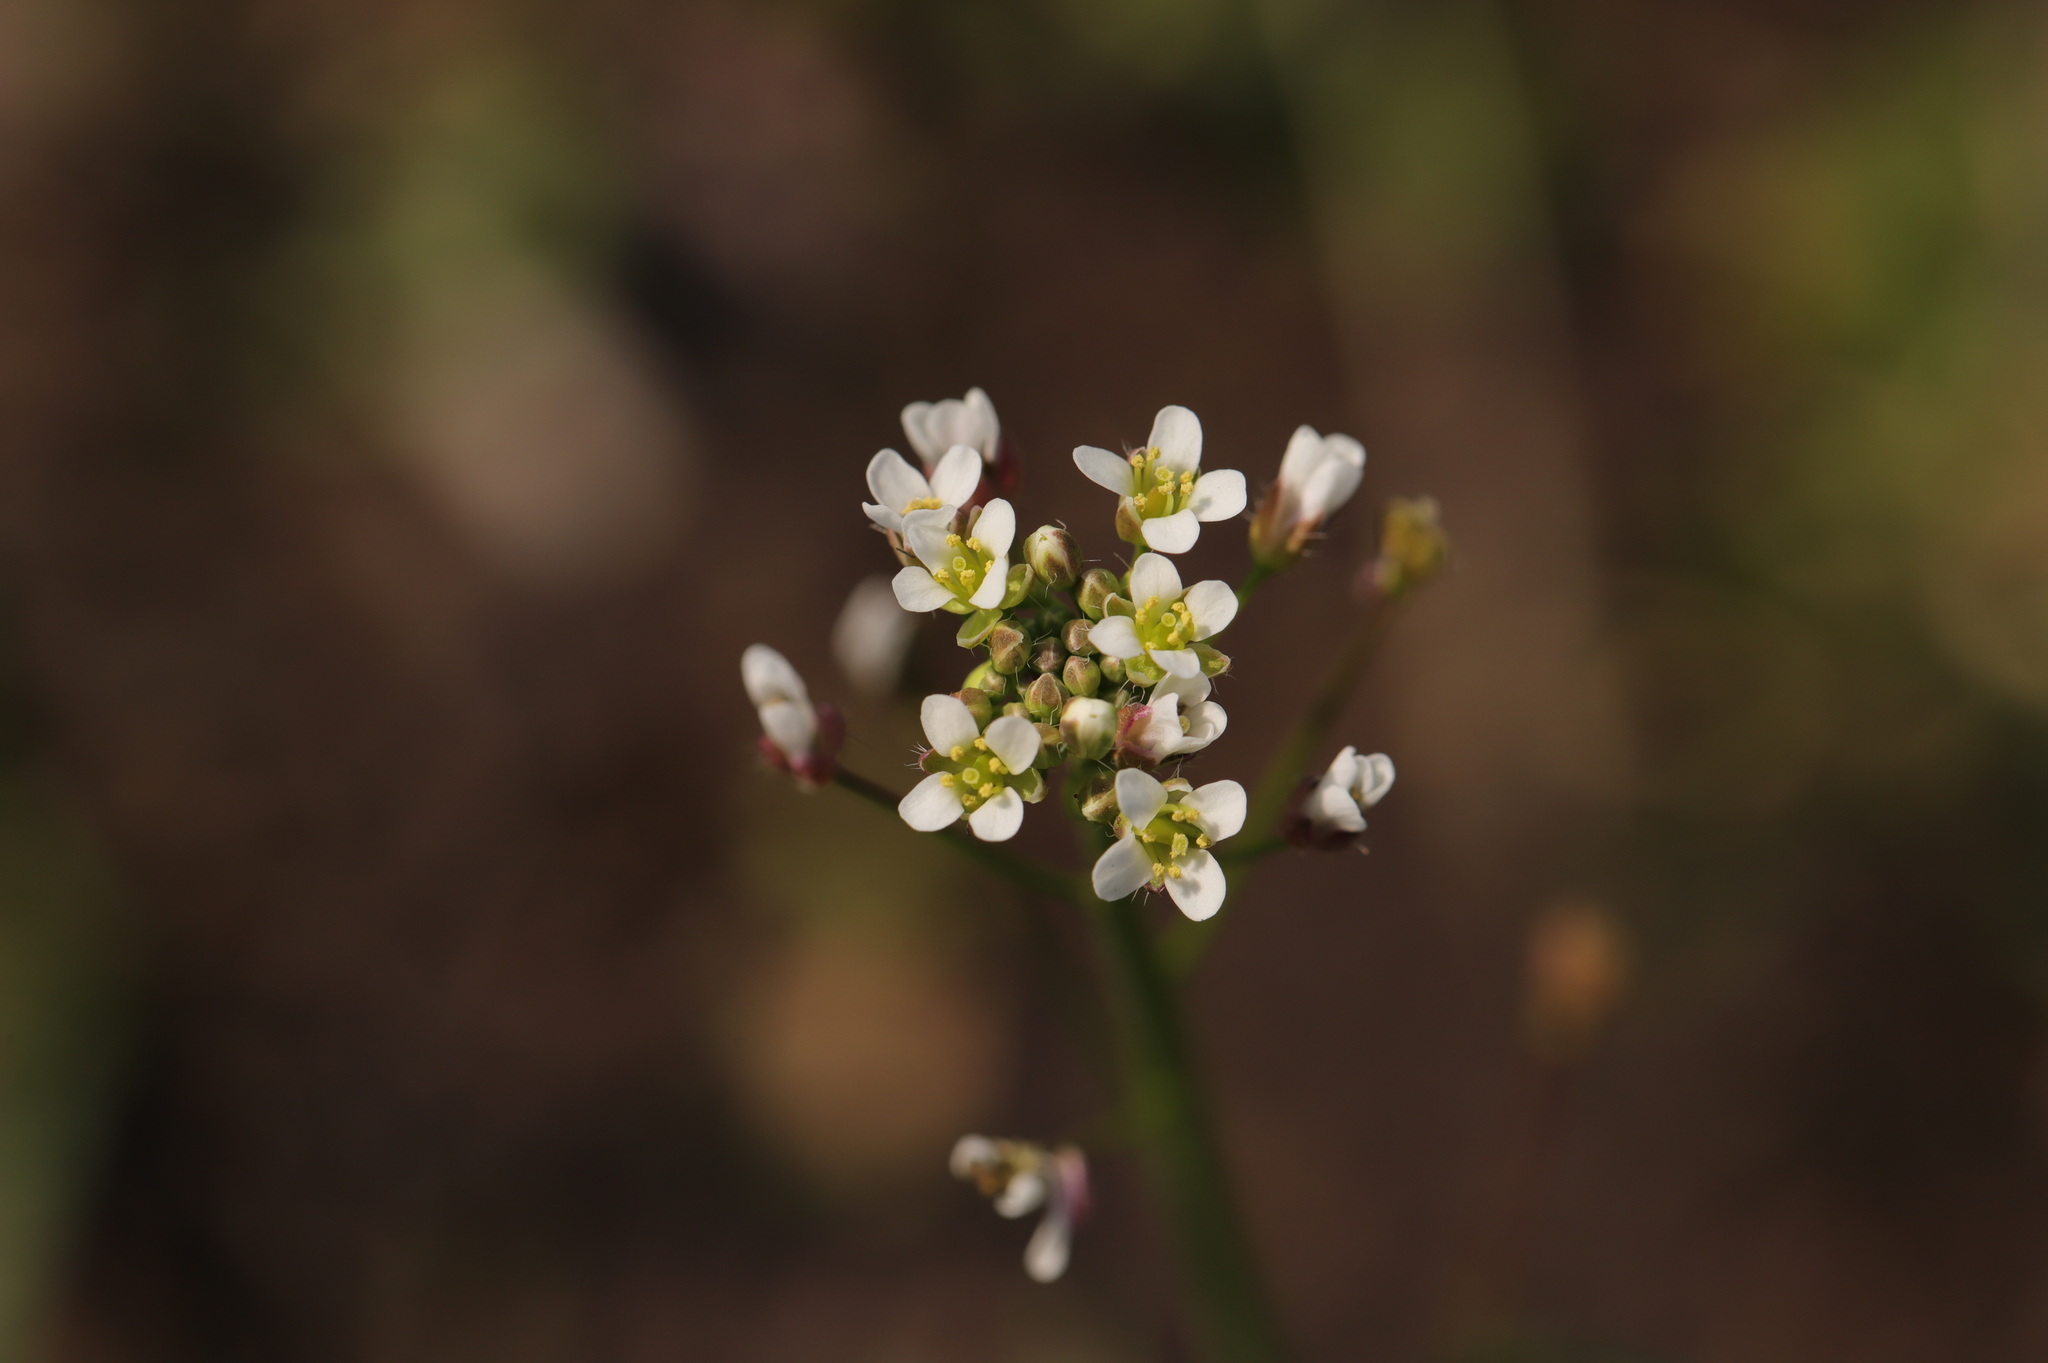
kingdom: Plantae
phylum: Tracheophyta
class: Magnoliopsida
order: Brassicales
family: Brassicaceae
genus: Capsella
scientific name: Capsella bursa-pastoris
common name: Shepherd's purse
